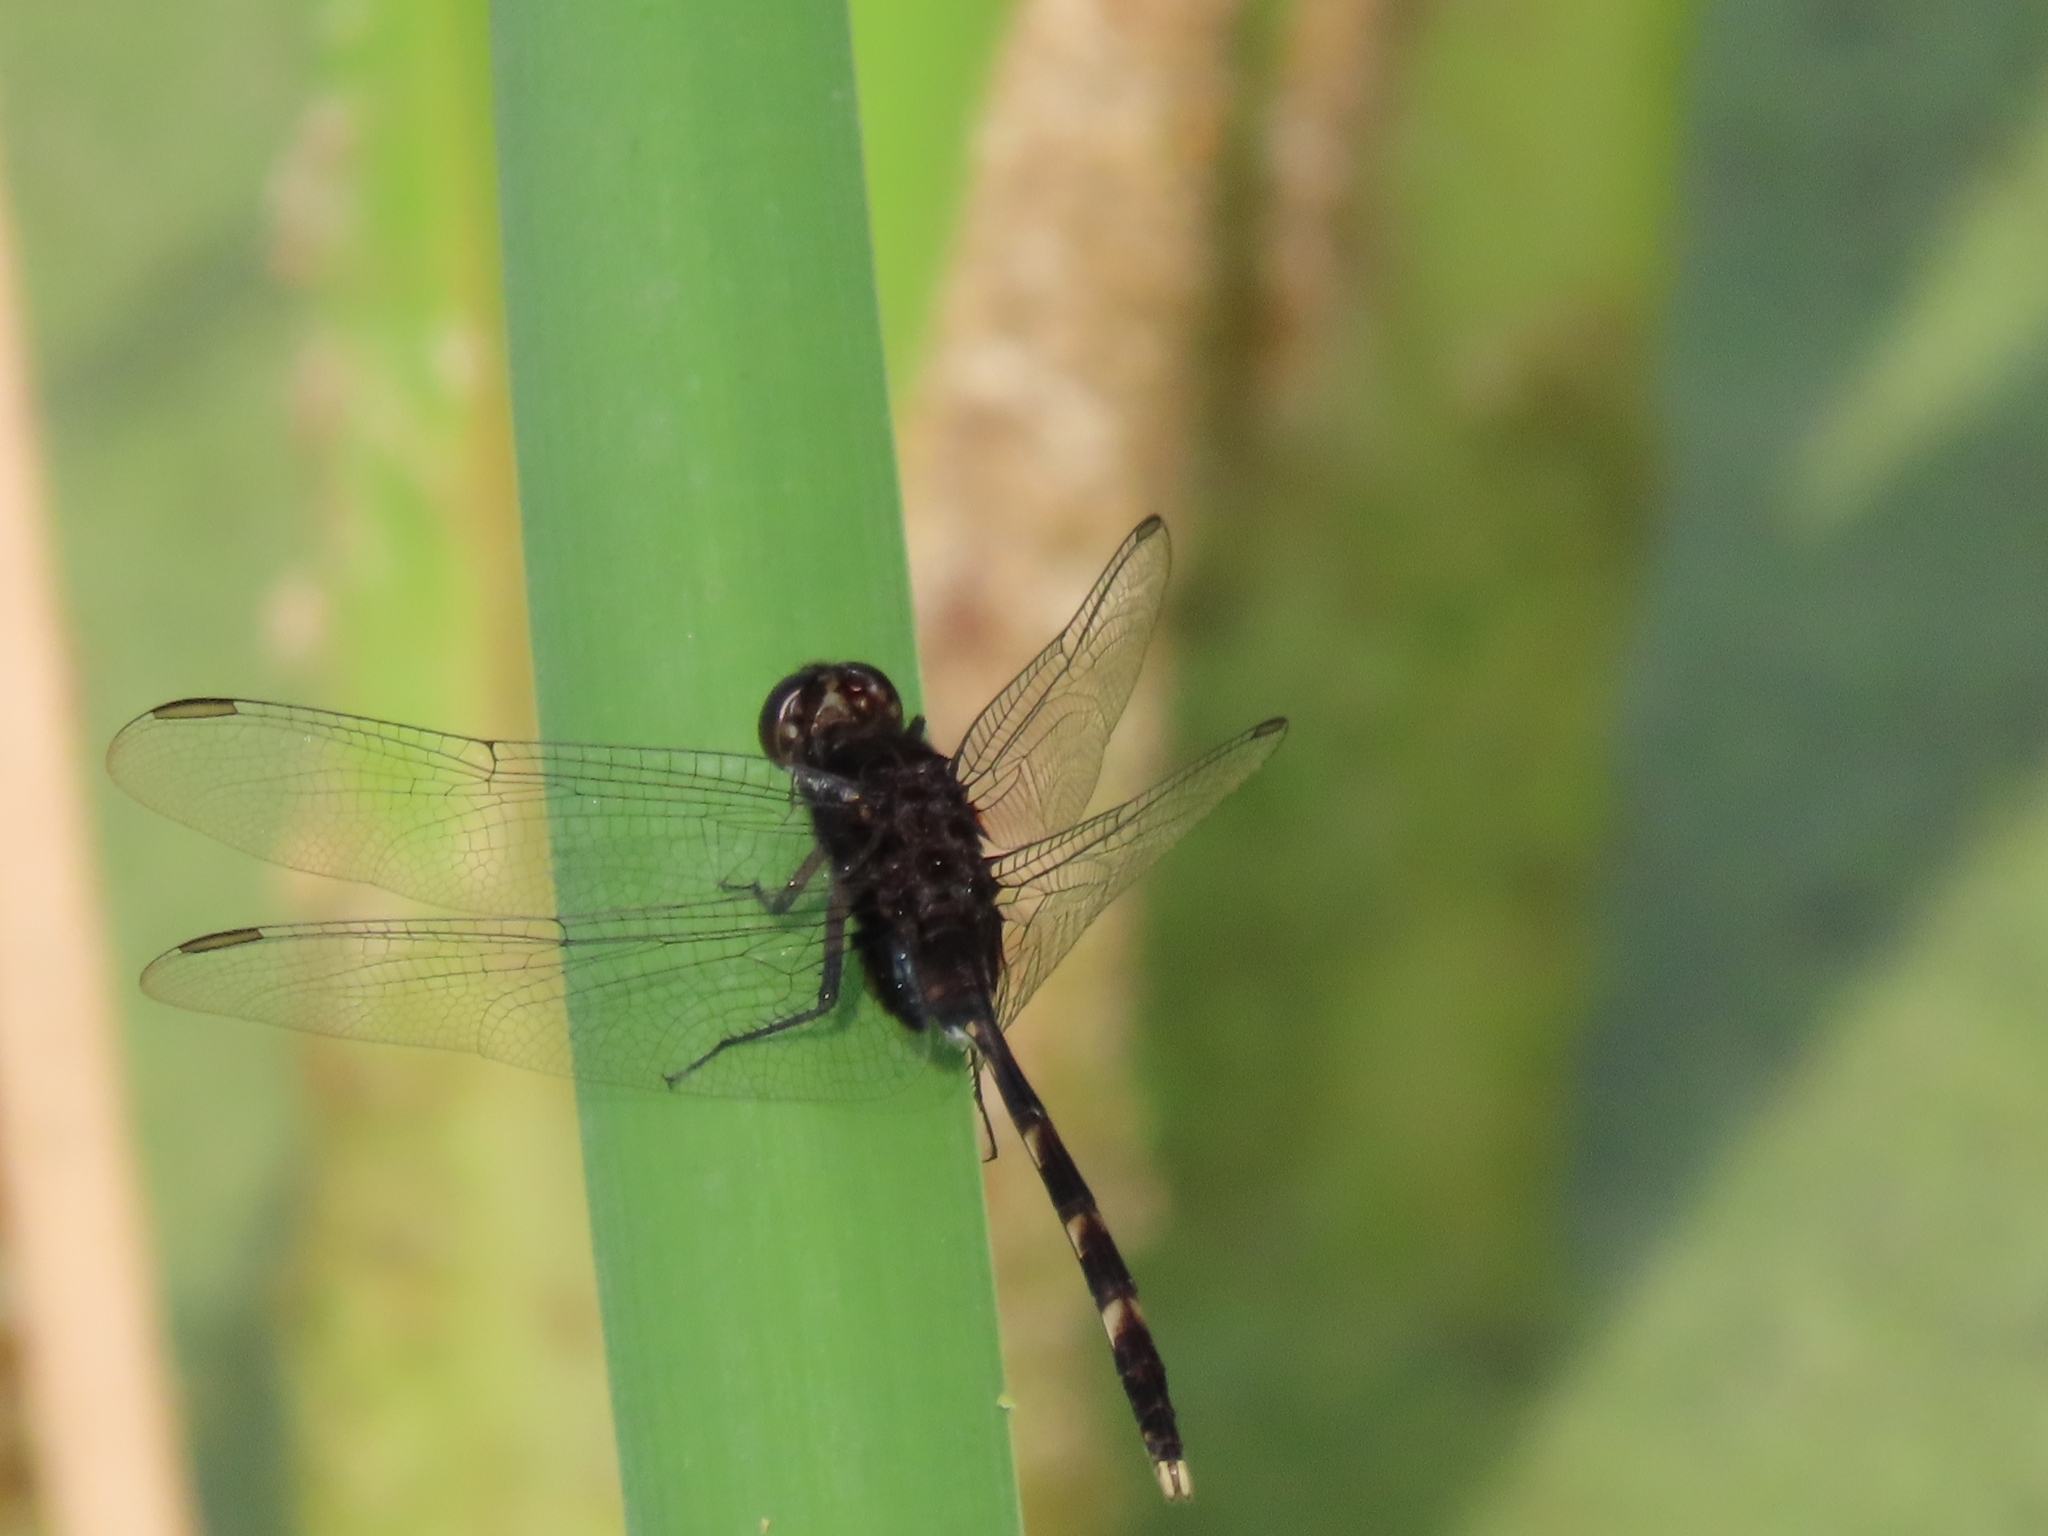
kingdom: Animalia
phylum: Arthropoda
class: Insecta
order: Odonata
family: Libellulidae
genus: Erythemis
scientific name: Erythemis plebeja
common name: Pin-tailed pondhawk
